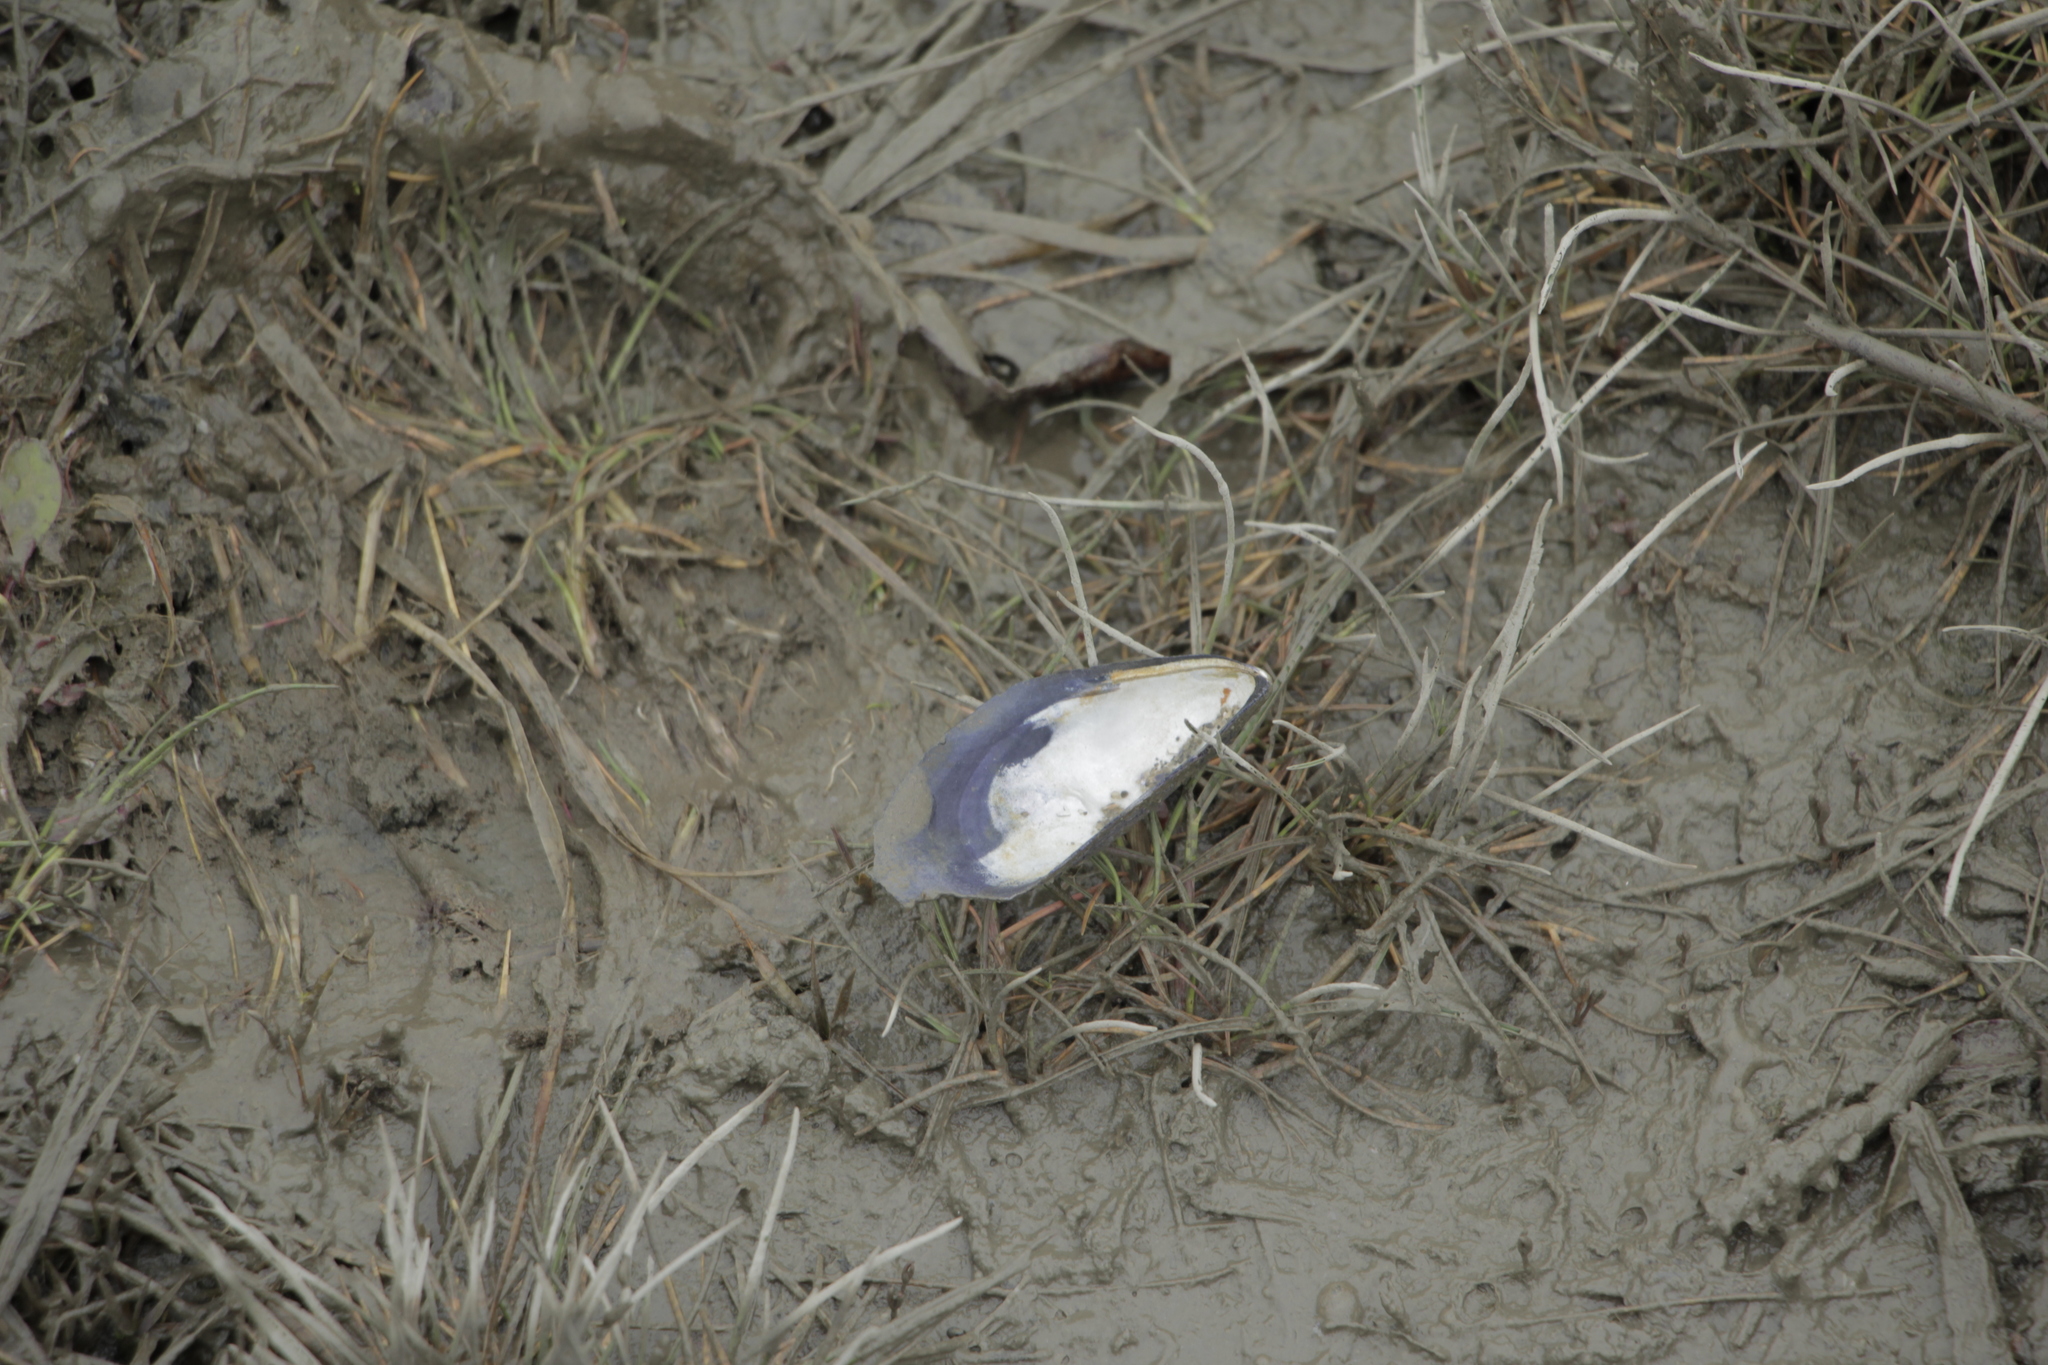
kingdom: Animalia
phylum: Mollusca
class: Bivalvia
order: Mytilida
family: Mytilidae
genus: Mytilus
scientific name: Mytilus edulis
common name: Blue mussel
